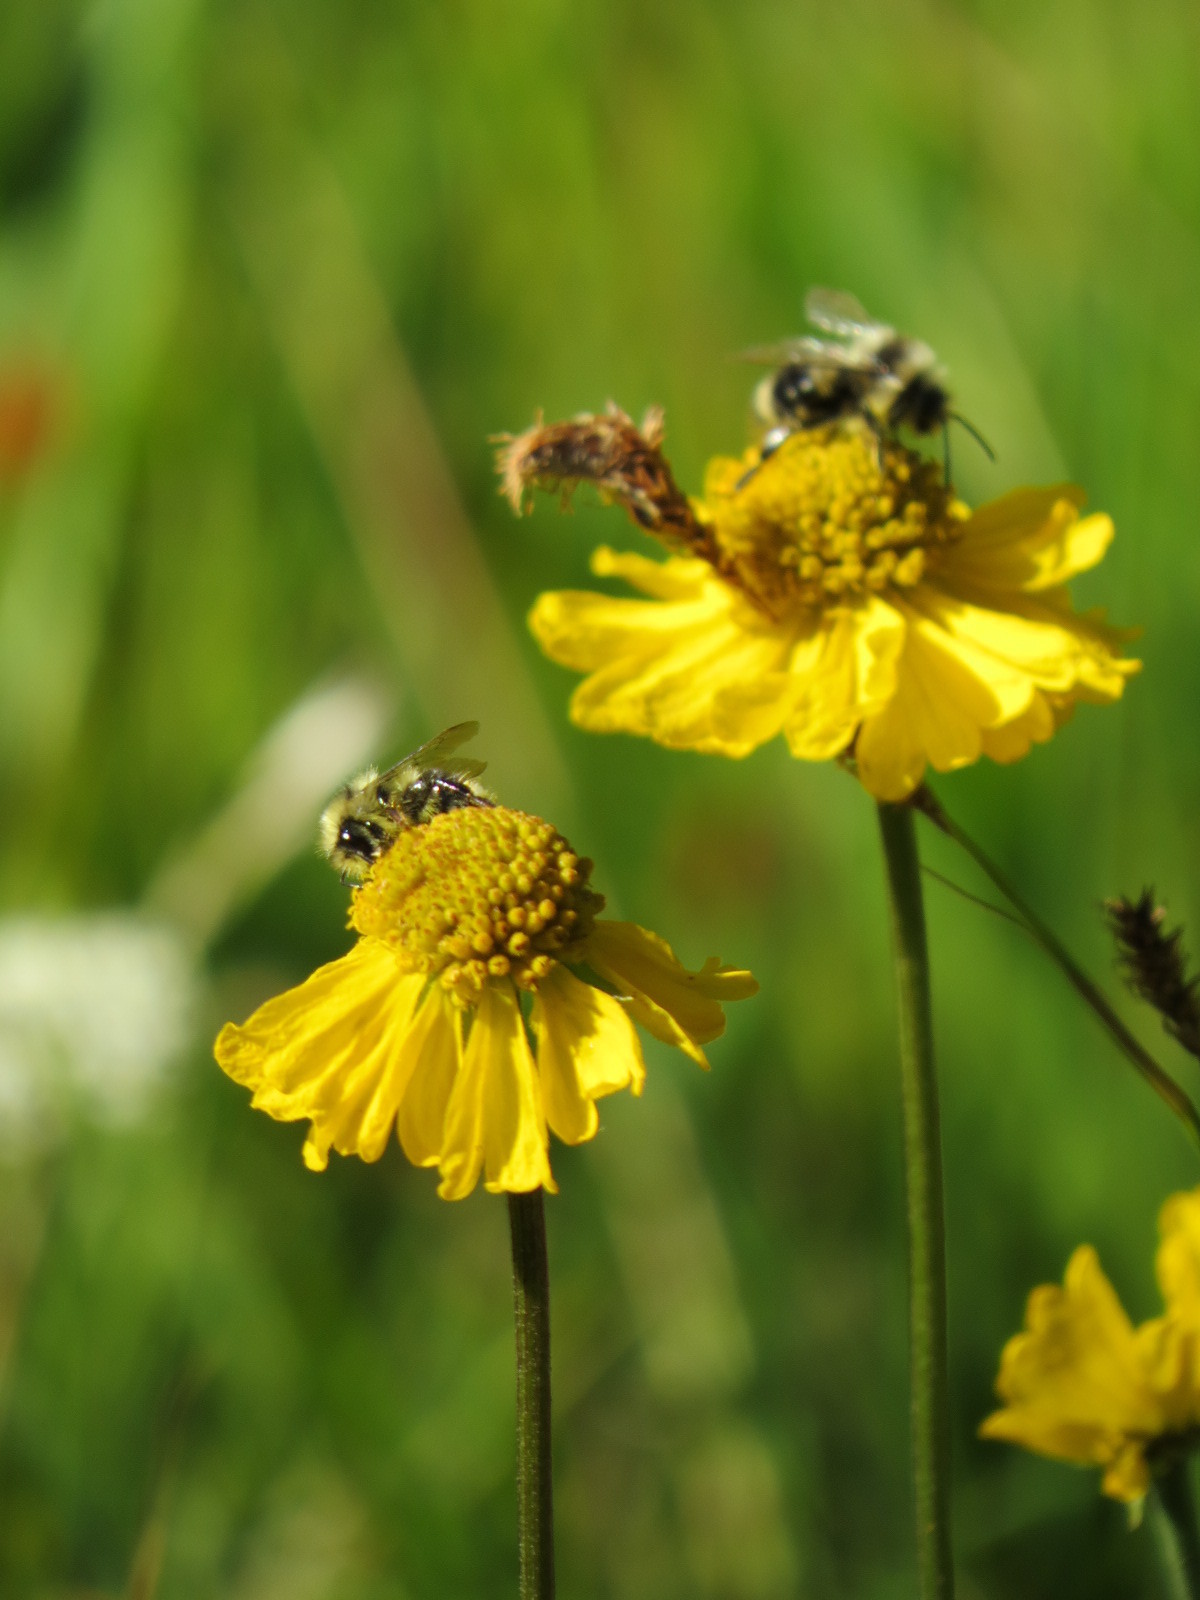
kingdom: Animalia
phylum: Arthropoda
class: Insecta
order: Hymenoptera
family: Apidae
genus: Bombus
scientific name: Bombus vancouverensis
